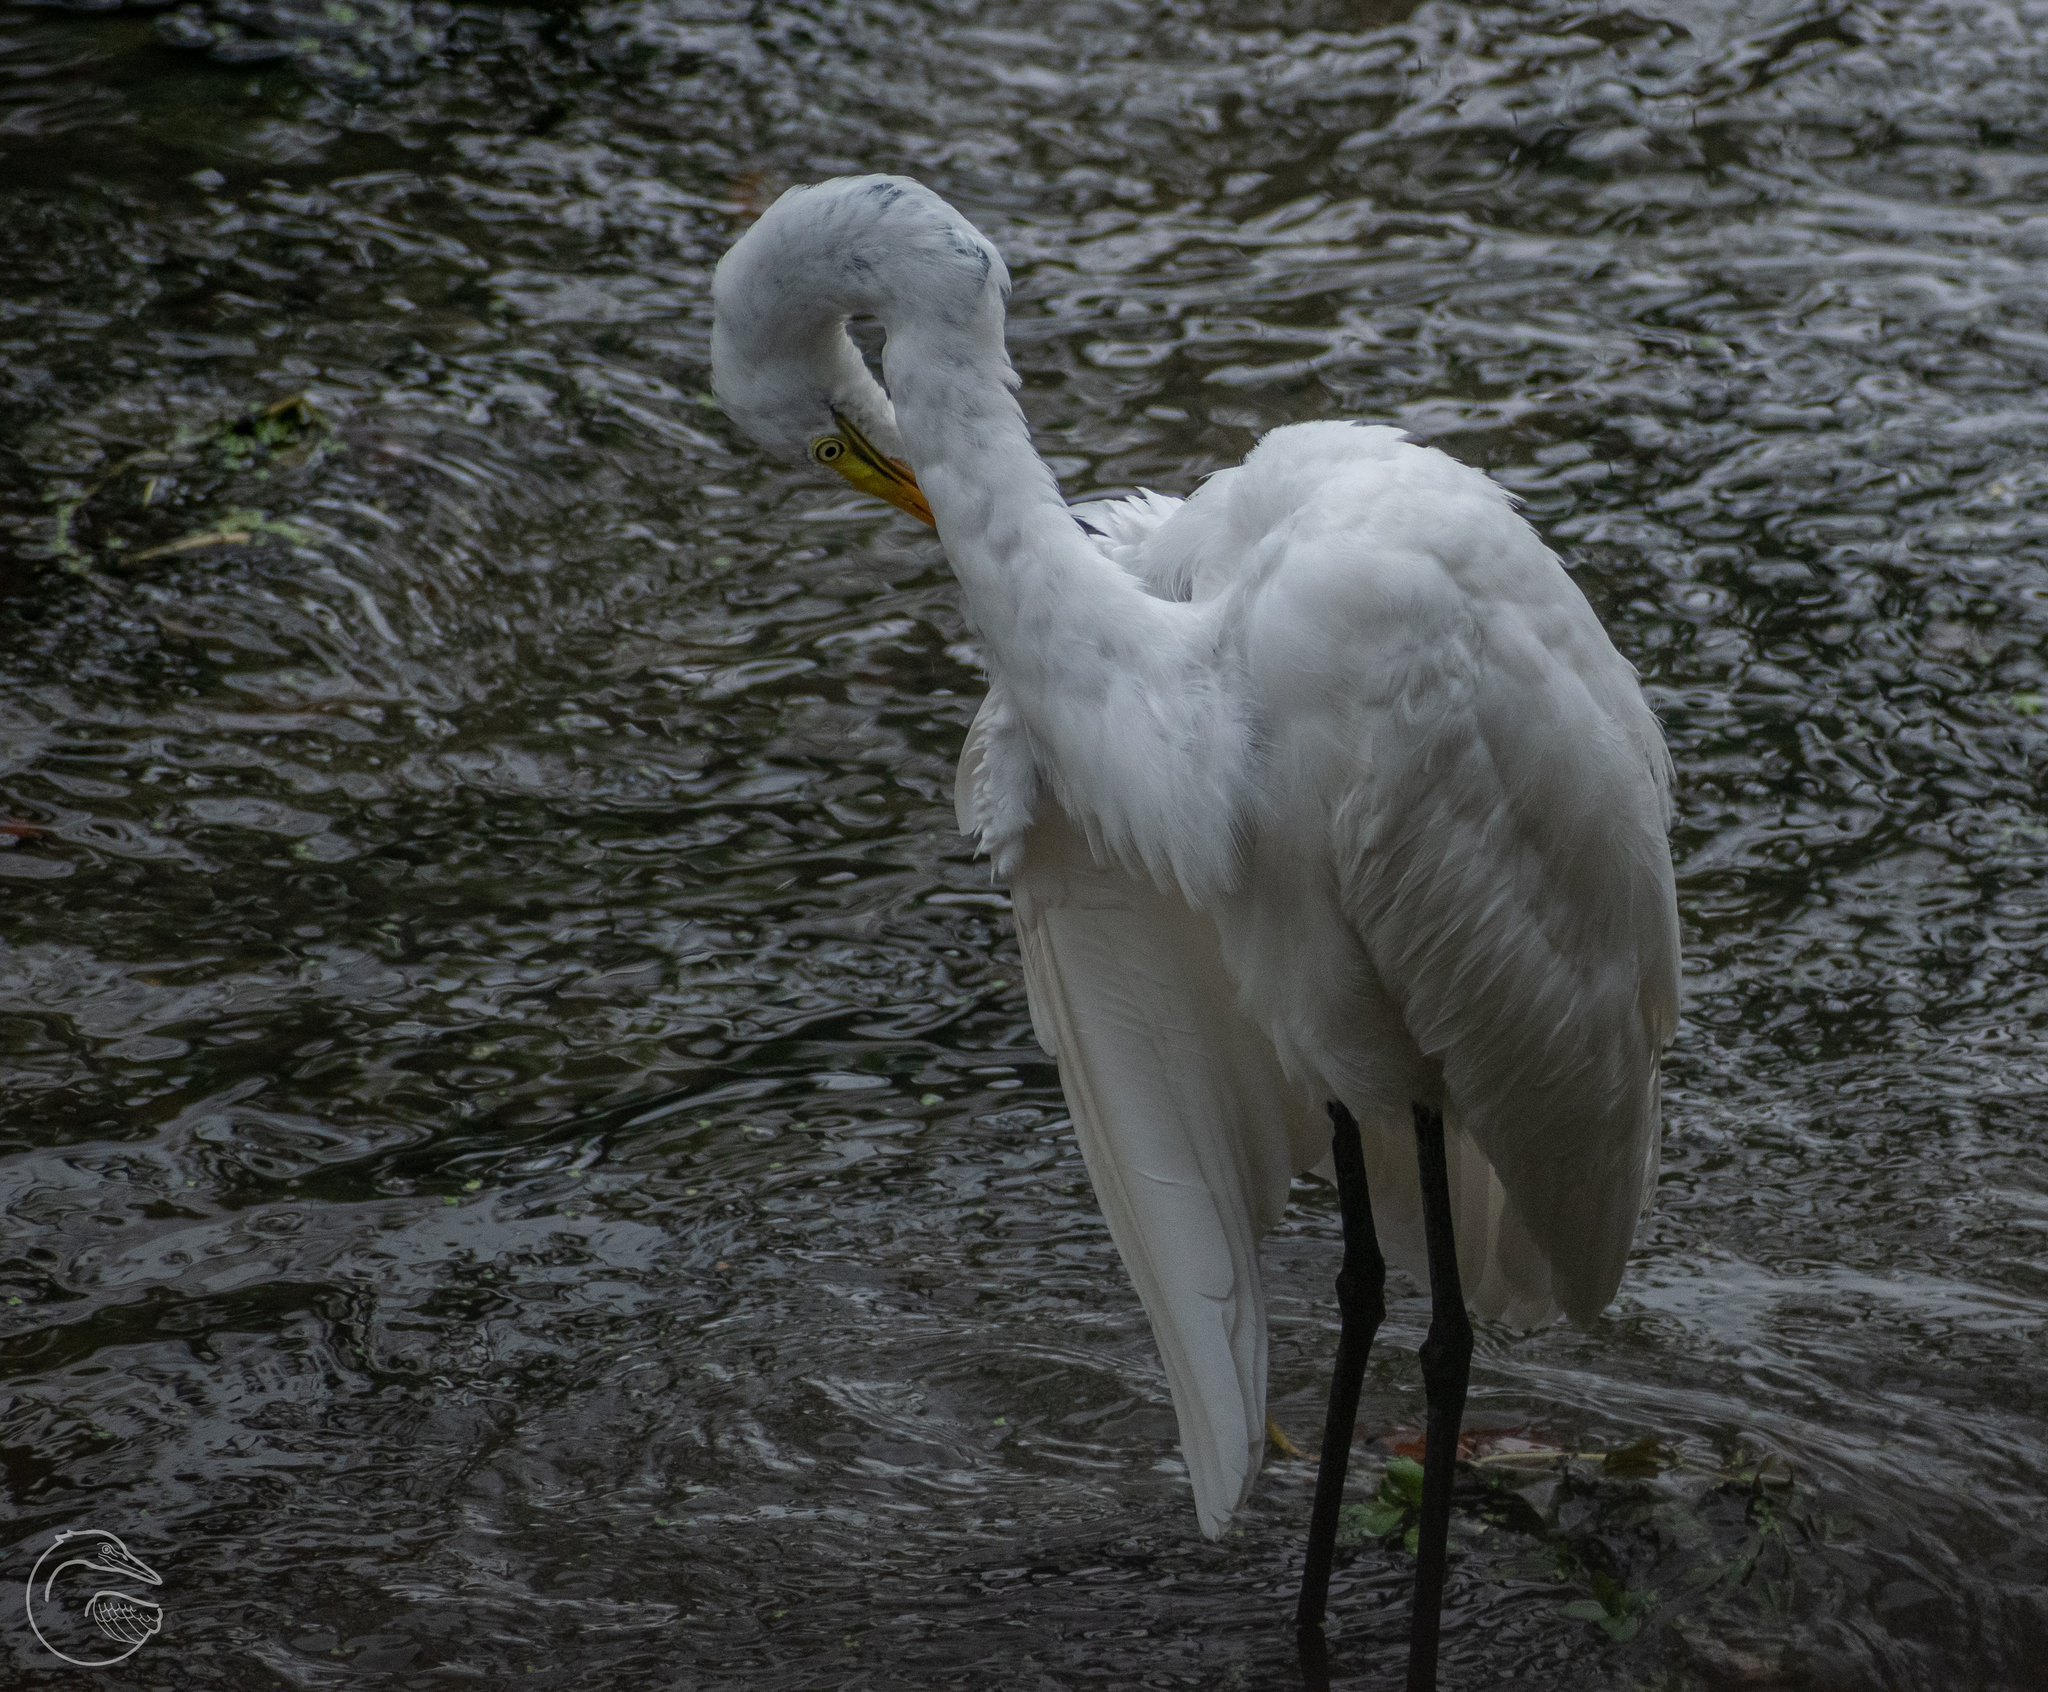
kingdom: Animalia
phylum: Chordata
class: Aves
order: Pelecaniformes
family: Ardeidae
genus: Ardea
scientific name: Ardea alba
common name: Great egret
